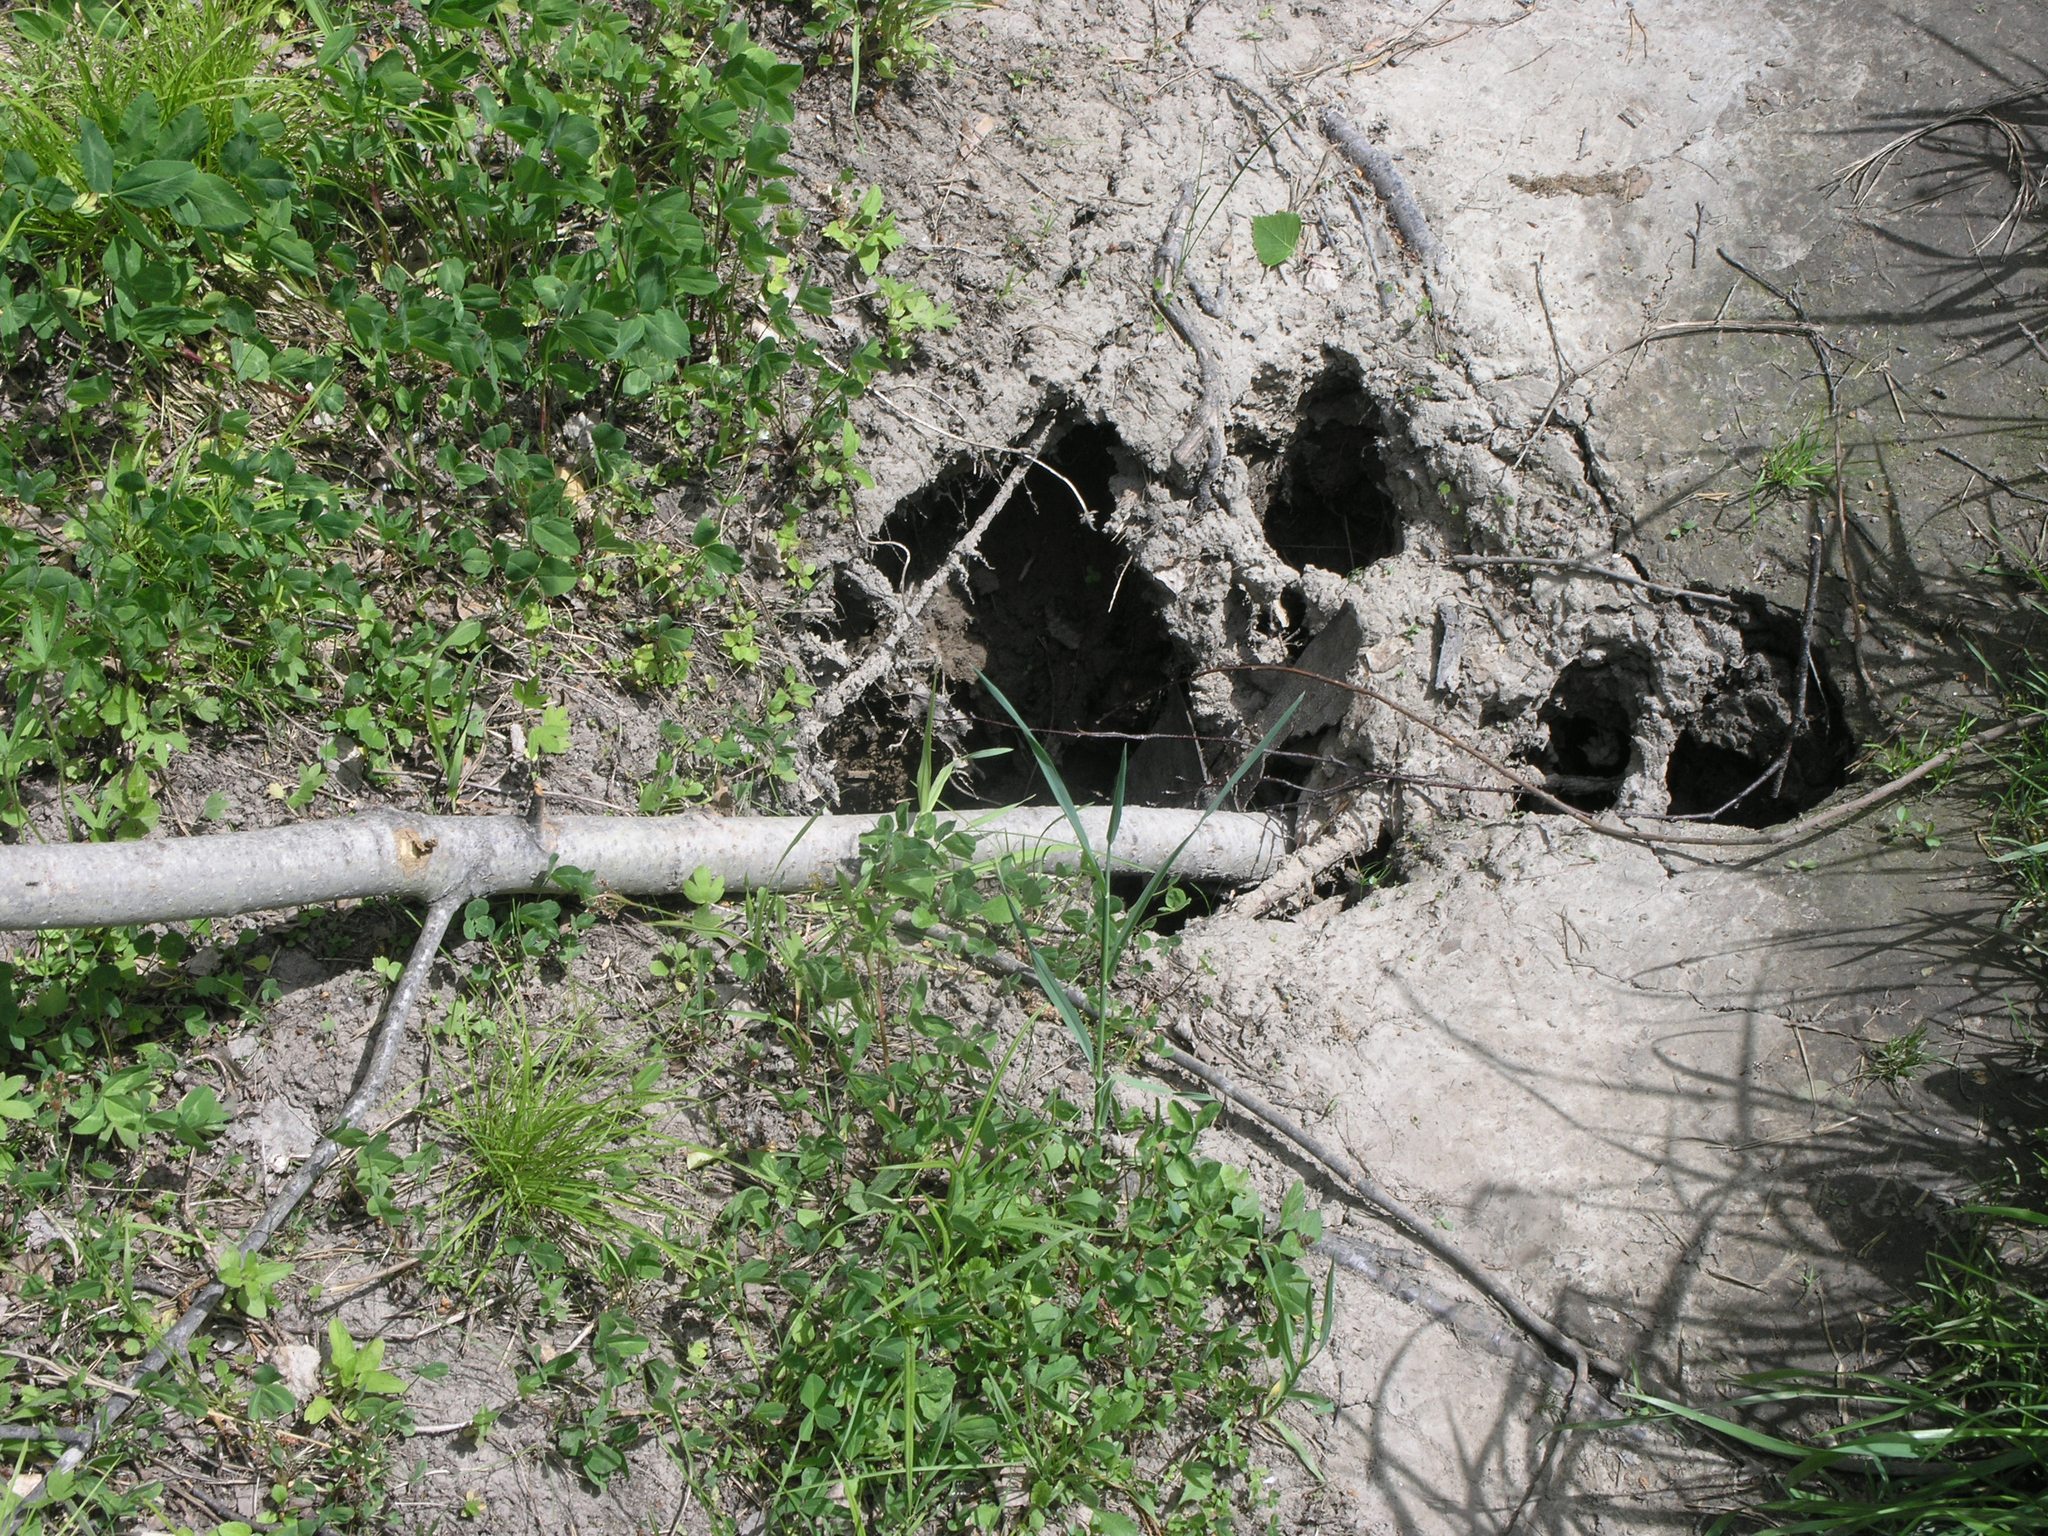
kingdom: Animalia
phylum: Chordata
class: Mammalia
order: Rodentia
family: Castoridae
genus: Castor
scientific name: Castor fiber
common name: Eurasian beaver
